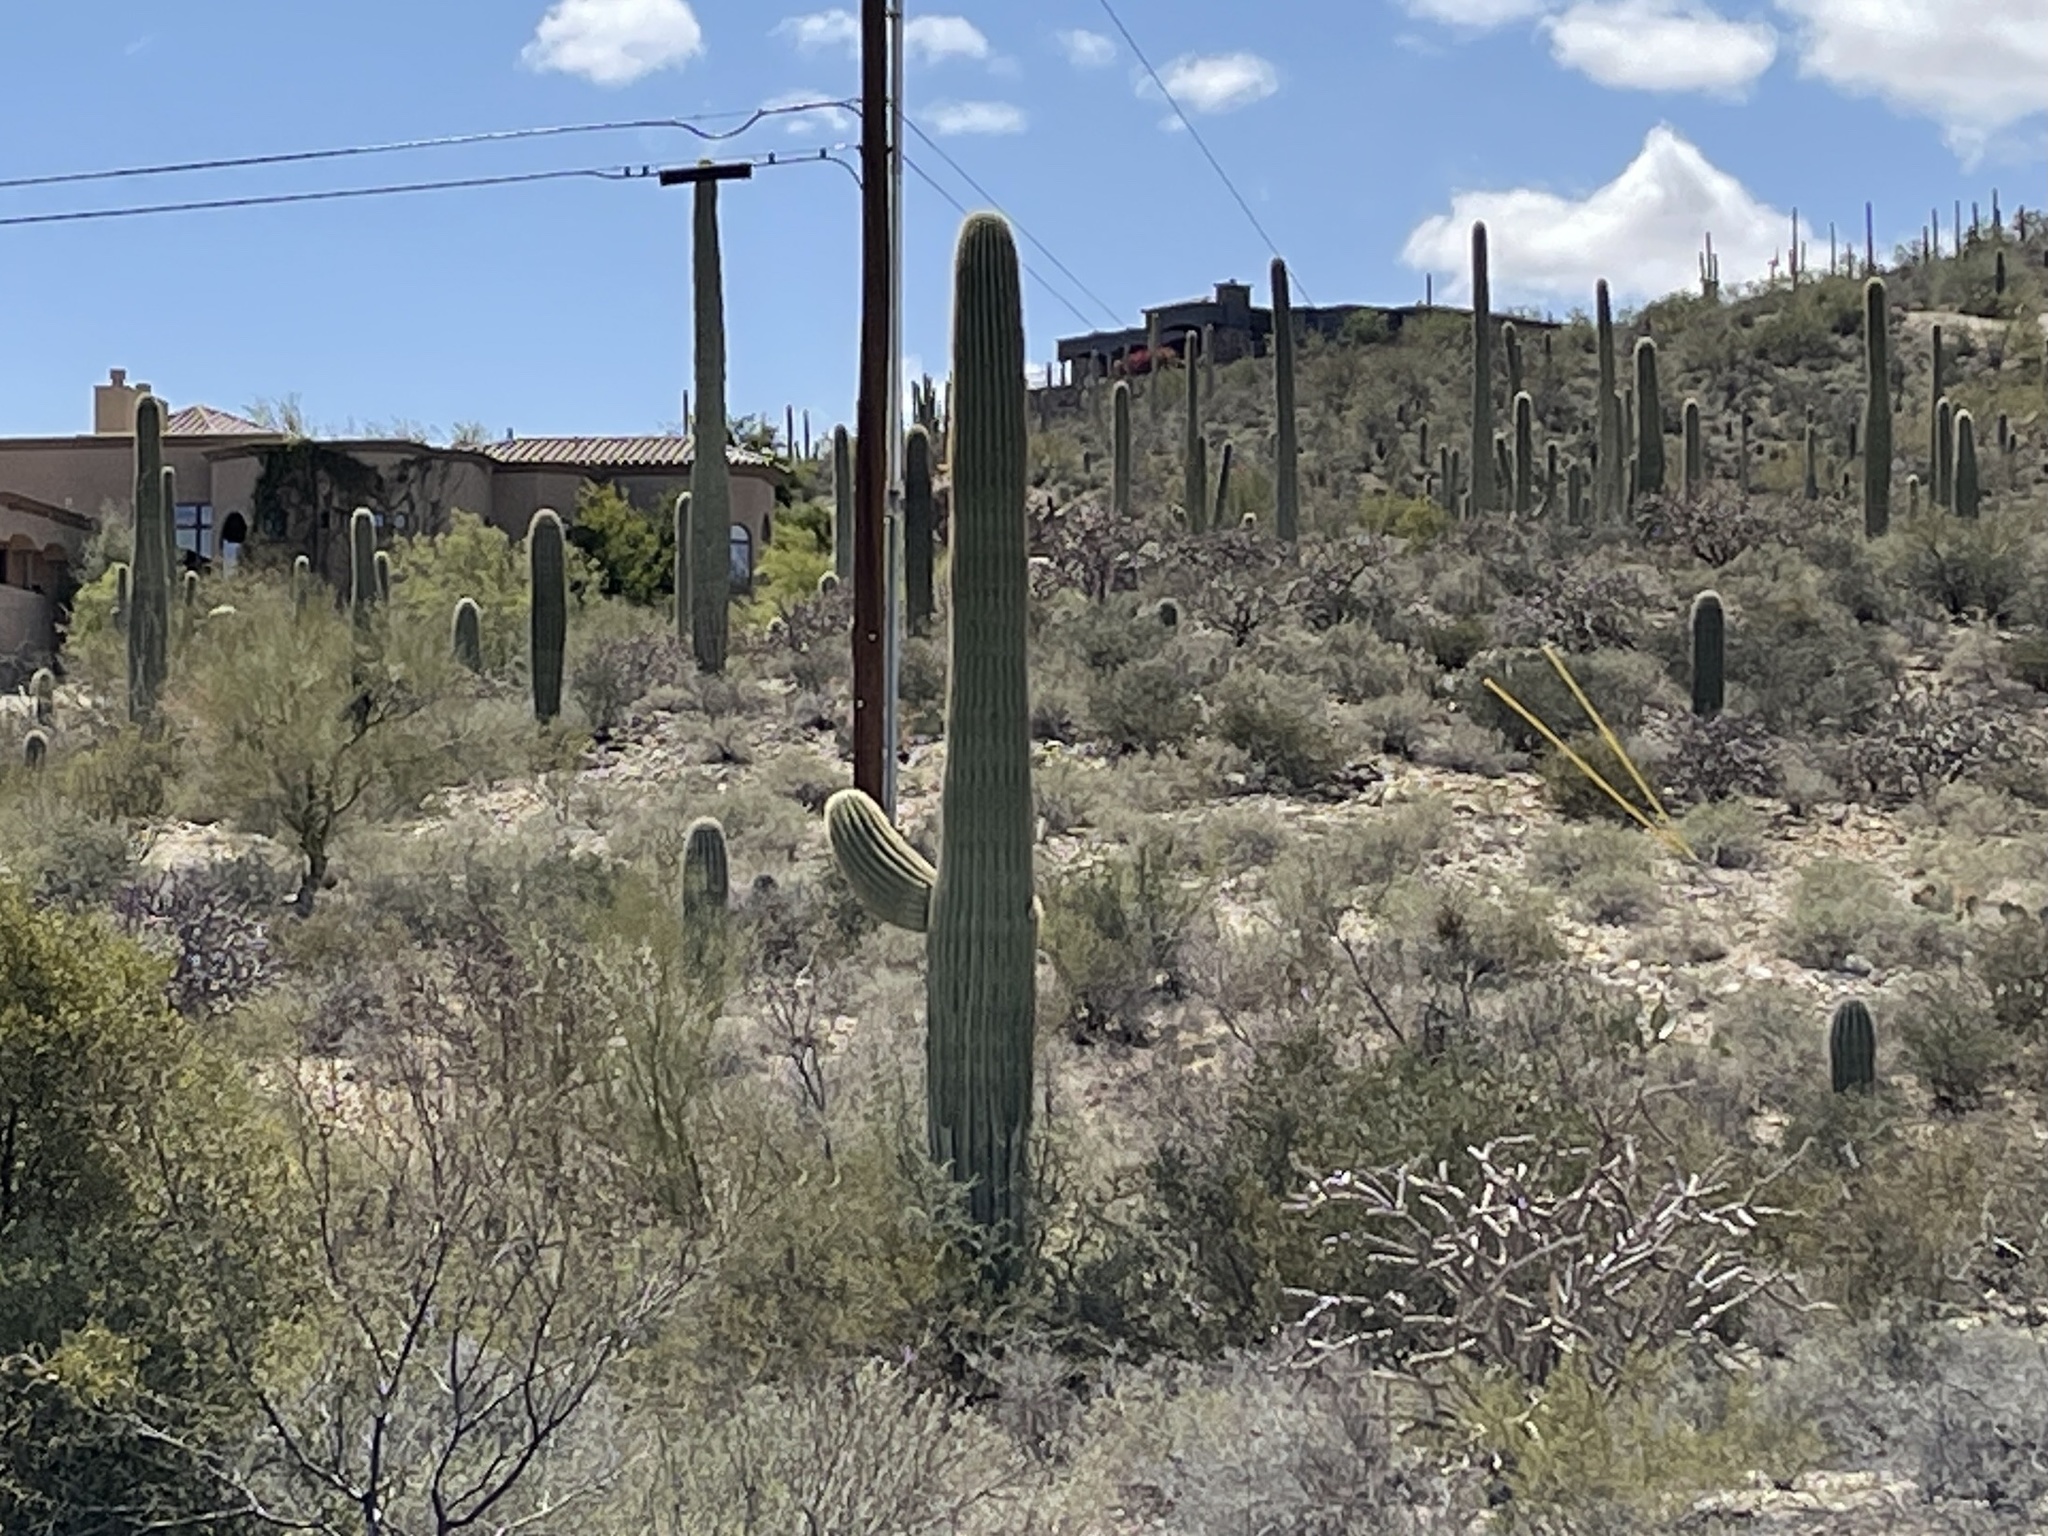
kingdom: Plantae
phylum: Tracheophyta
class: Magnoliopsida
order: Caryophyllales
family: Cactaceae
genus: Carnegiea
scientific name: Carnegiea gigantea
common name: Saguaro
